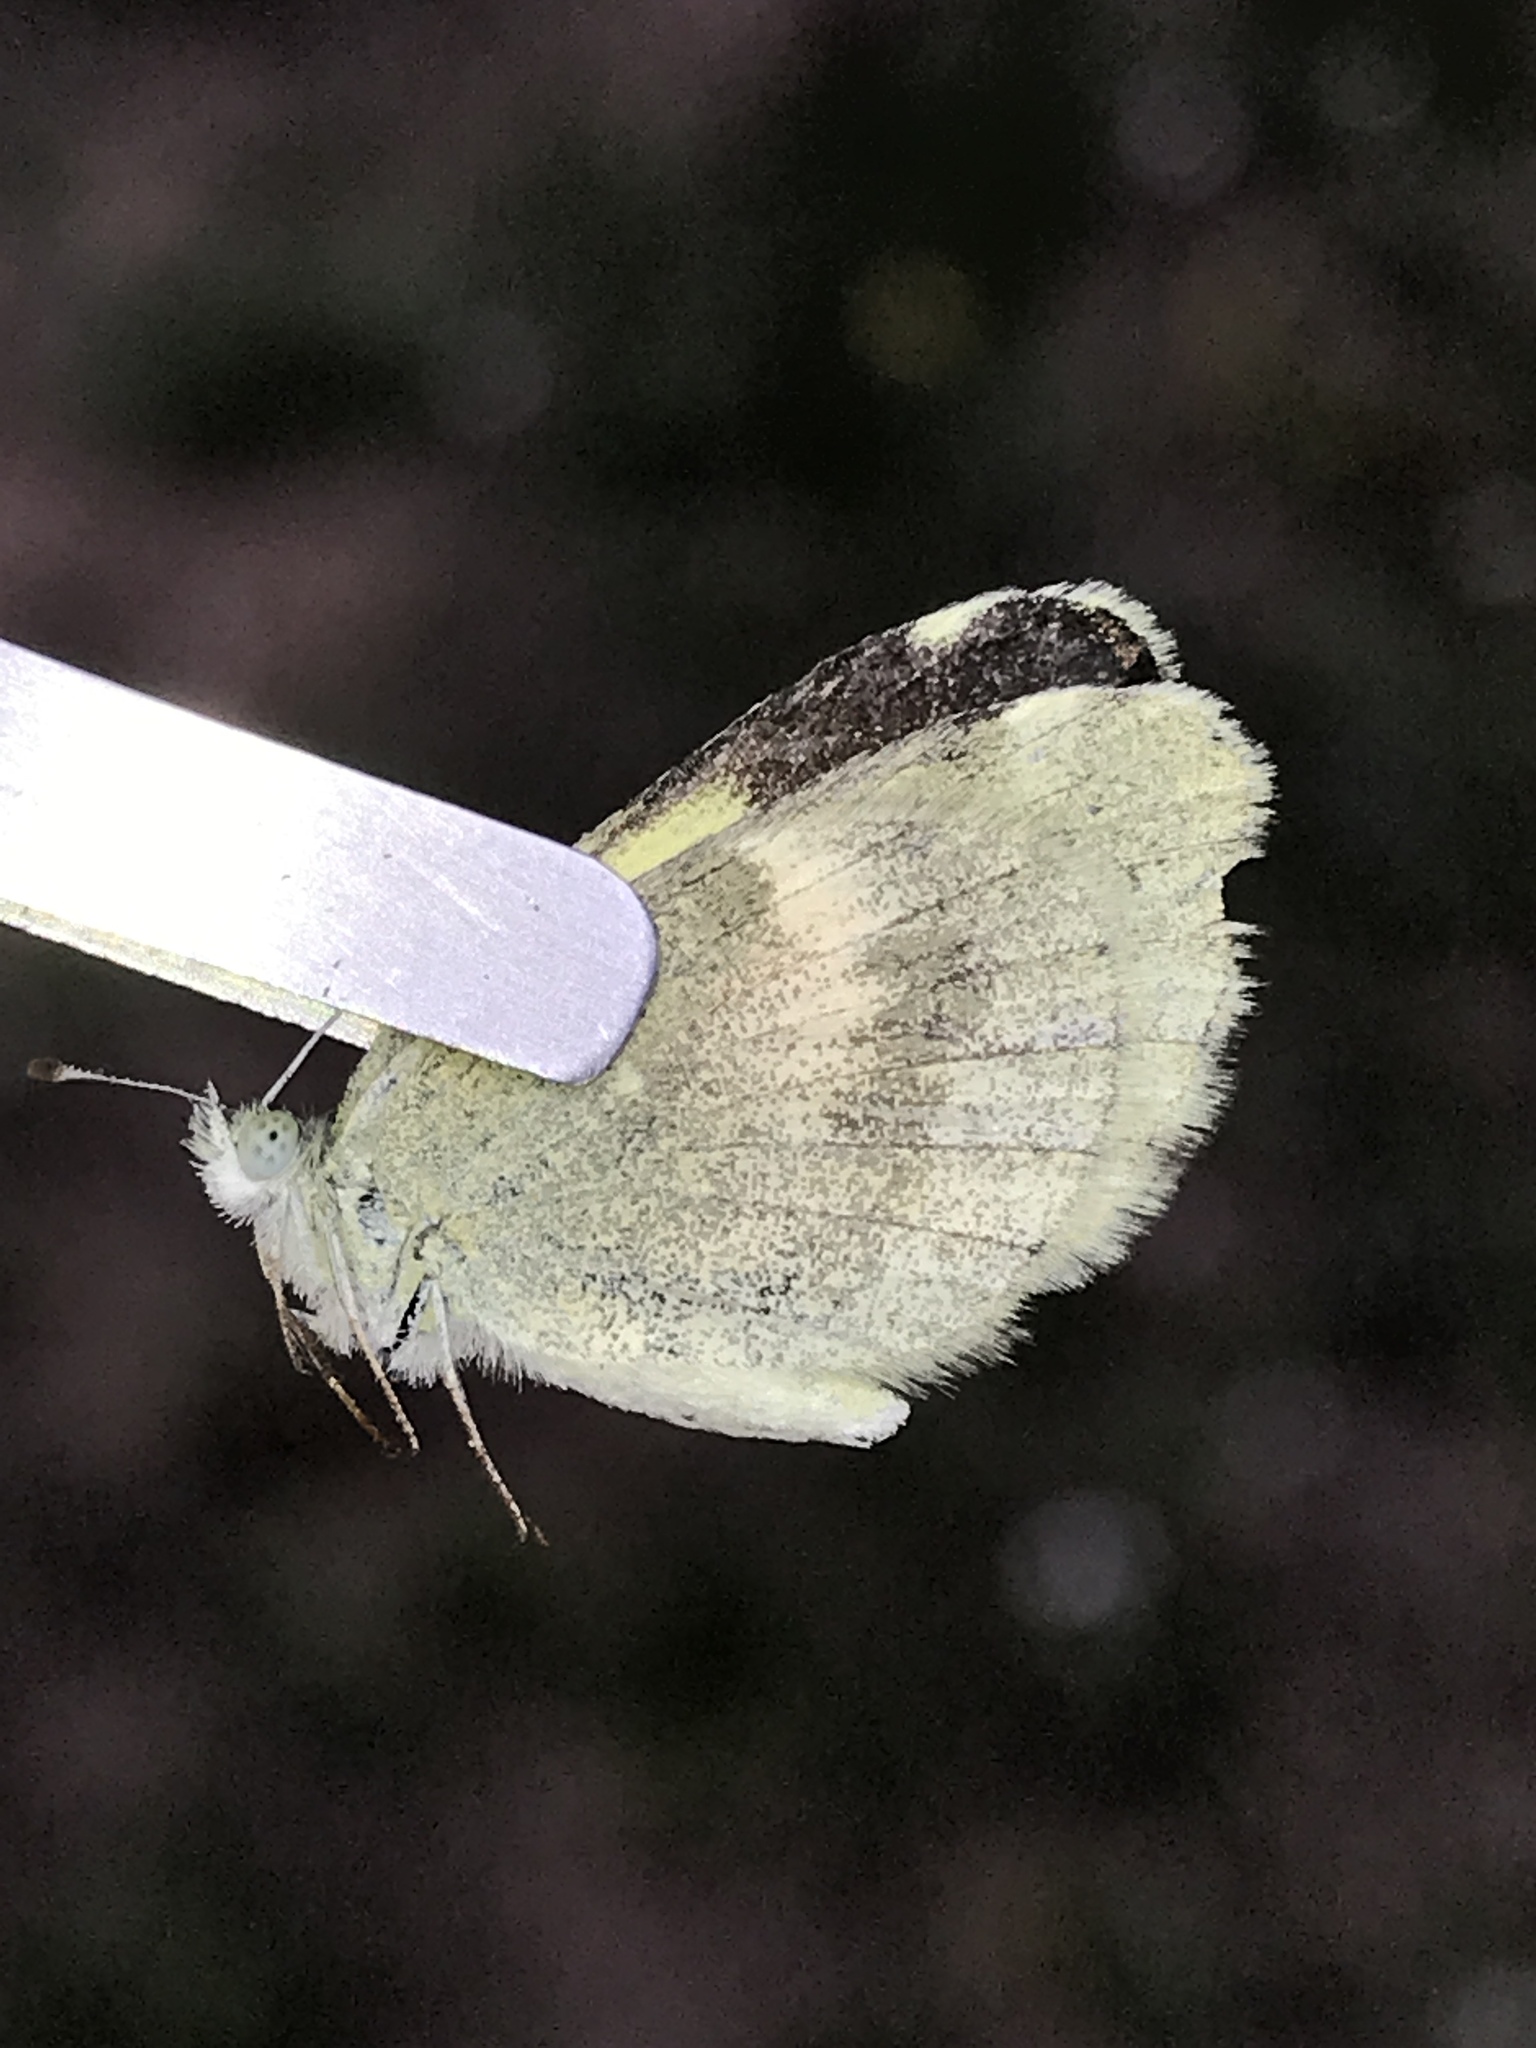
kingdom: Animalia
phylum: Arthropoda
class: Insecta
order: Lepidoptera
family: Pieridae
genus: Nathalis
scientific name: Nathalis iole
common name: Dainty sulphur
